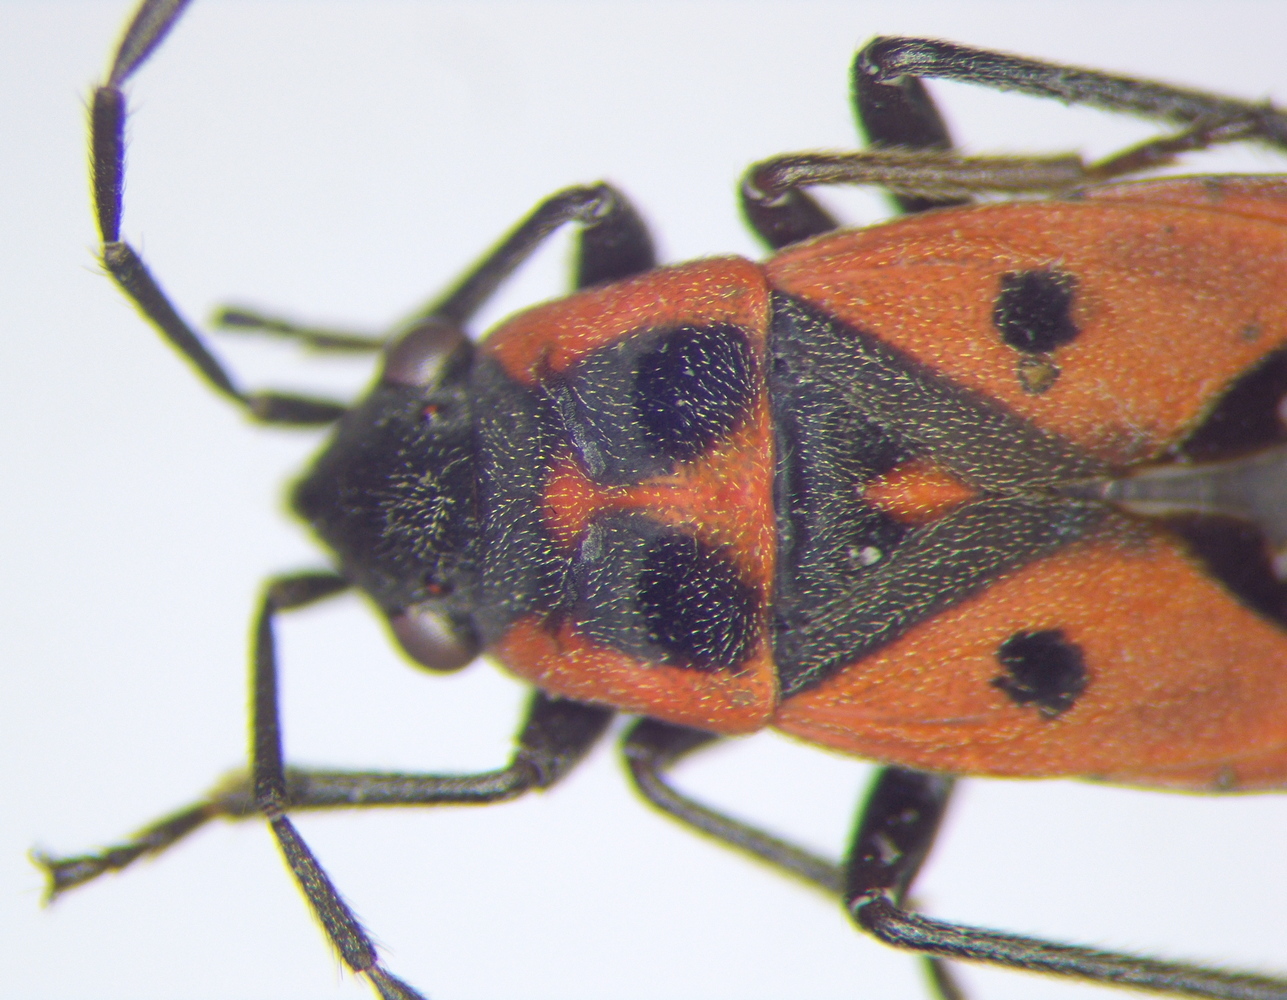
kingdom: Animalia
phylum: Arthropoda
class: Insecta
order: Hemiptera
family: Lygaeidae
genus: Melanocoryphus
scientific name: Melanocoryphus tristrami
